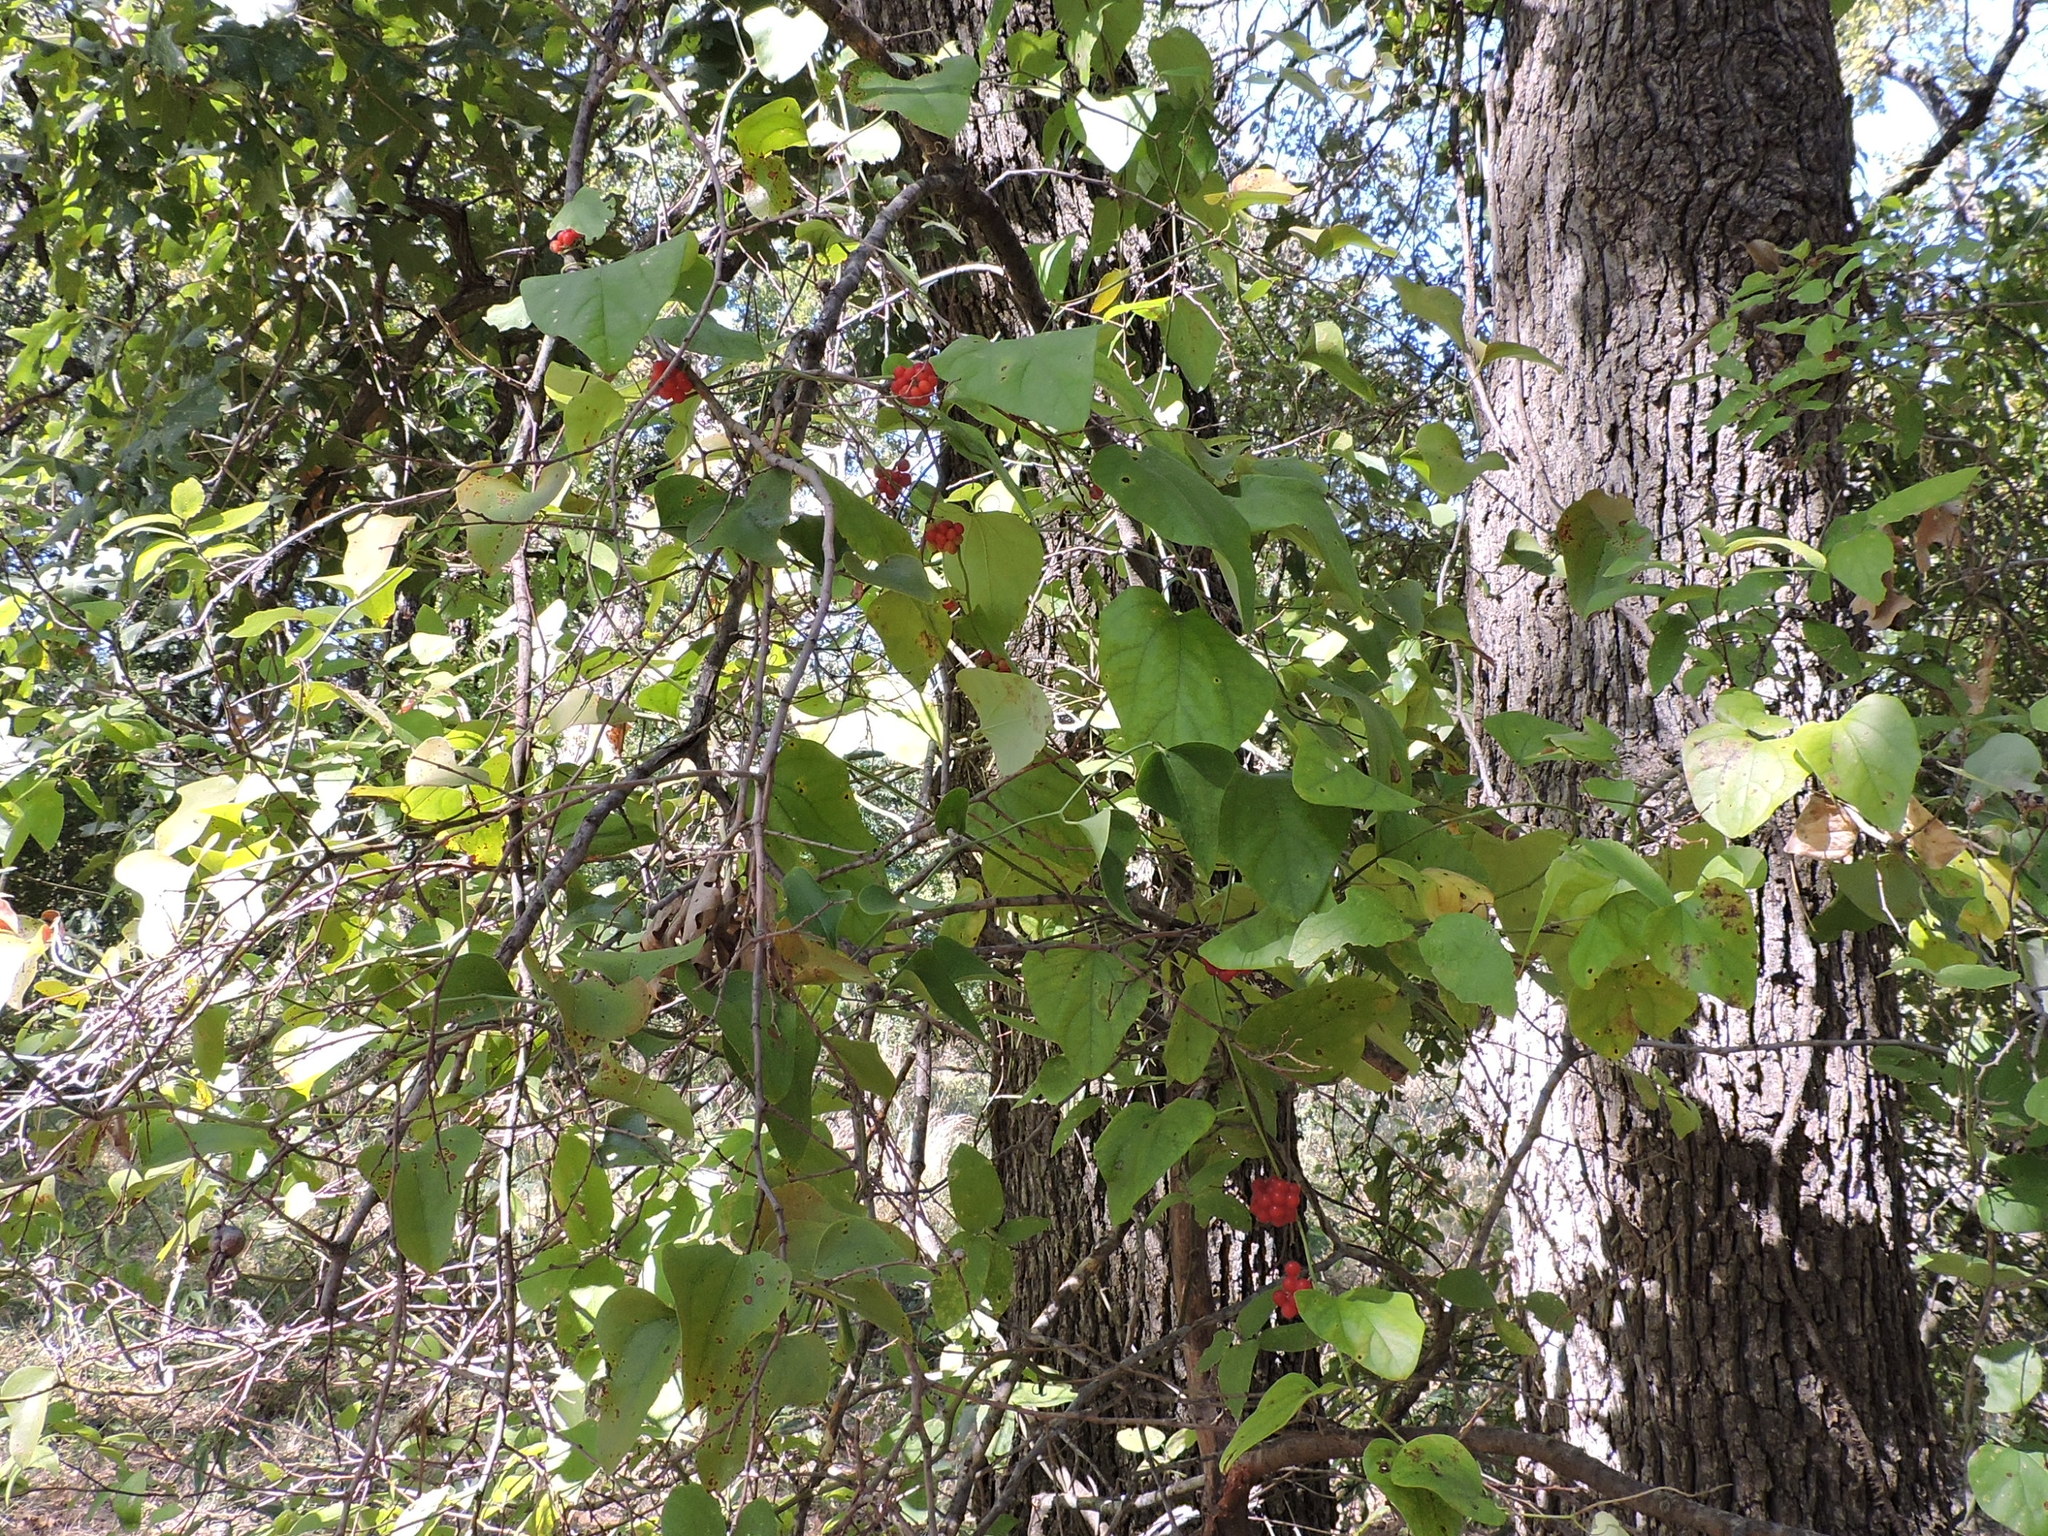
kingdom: Plantae
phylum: Tracheophyta
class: Magnoliopsida
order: Ranunculales
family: Menispermaceae
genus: Cocculus
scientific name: Cocculus carolinus
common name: Carolina moonseed
